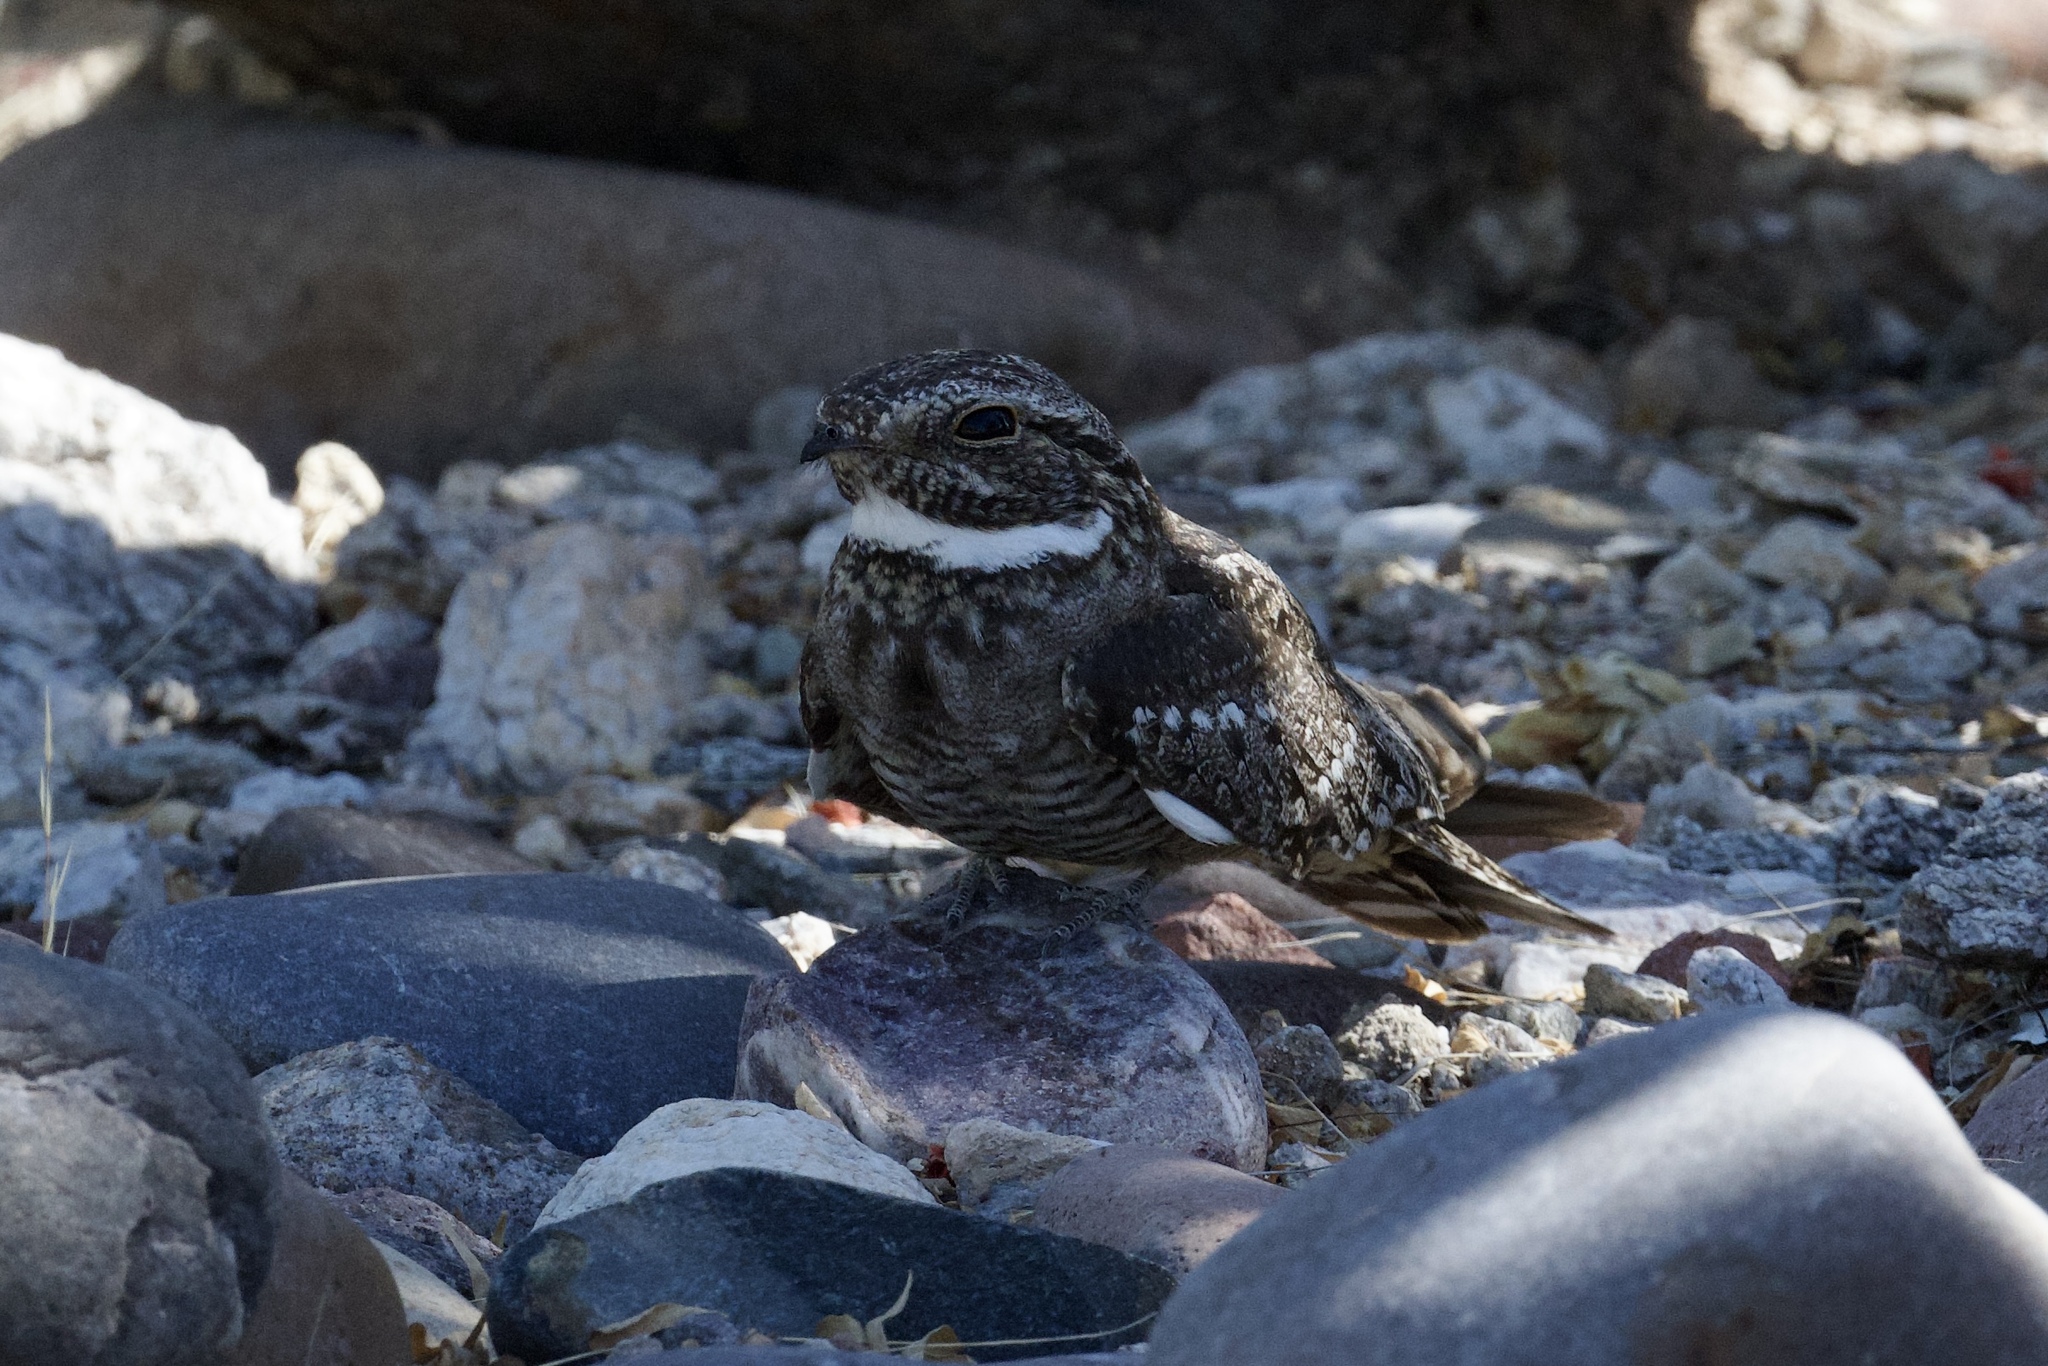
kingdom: Animalia
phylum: Chordata
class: Aves
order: Caprimulgiformes
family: Caprimulgidae
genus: Chordeiles
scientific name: Chordeiles acutipennis
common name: Lesser nighthawk
